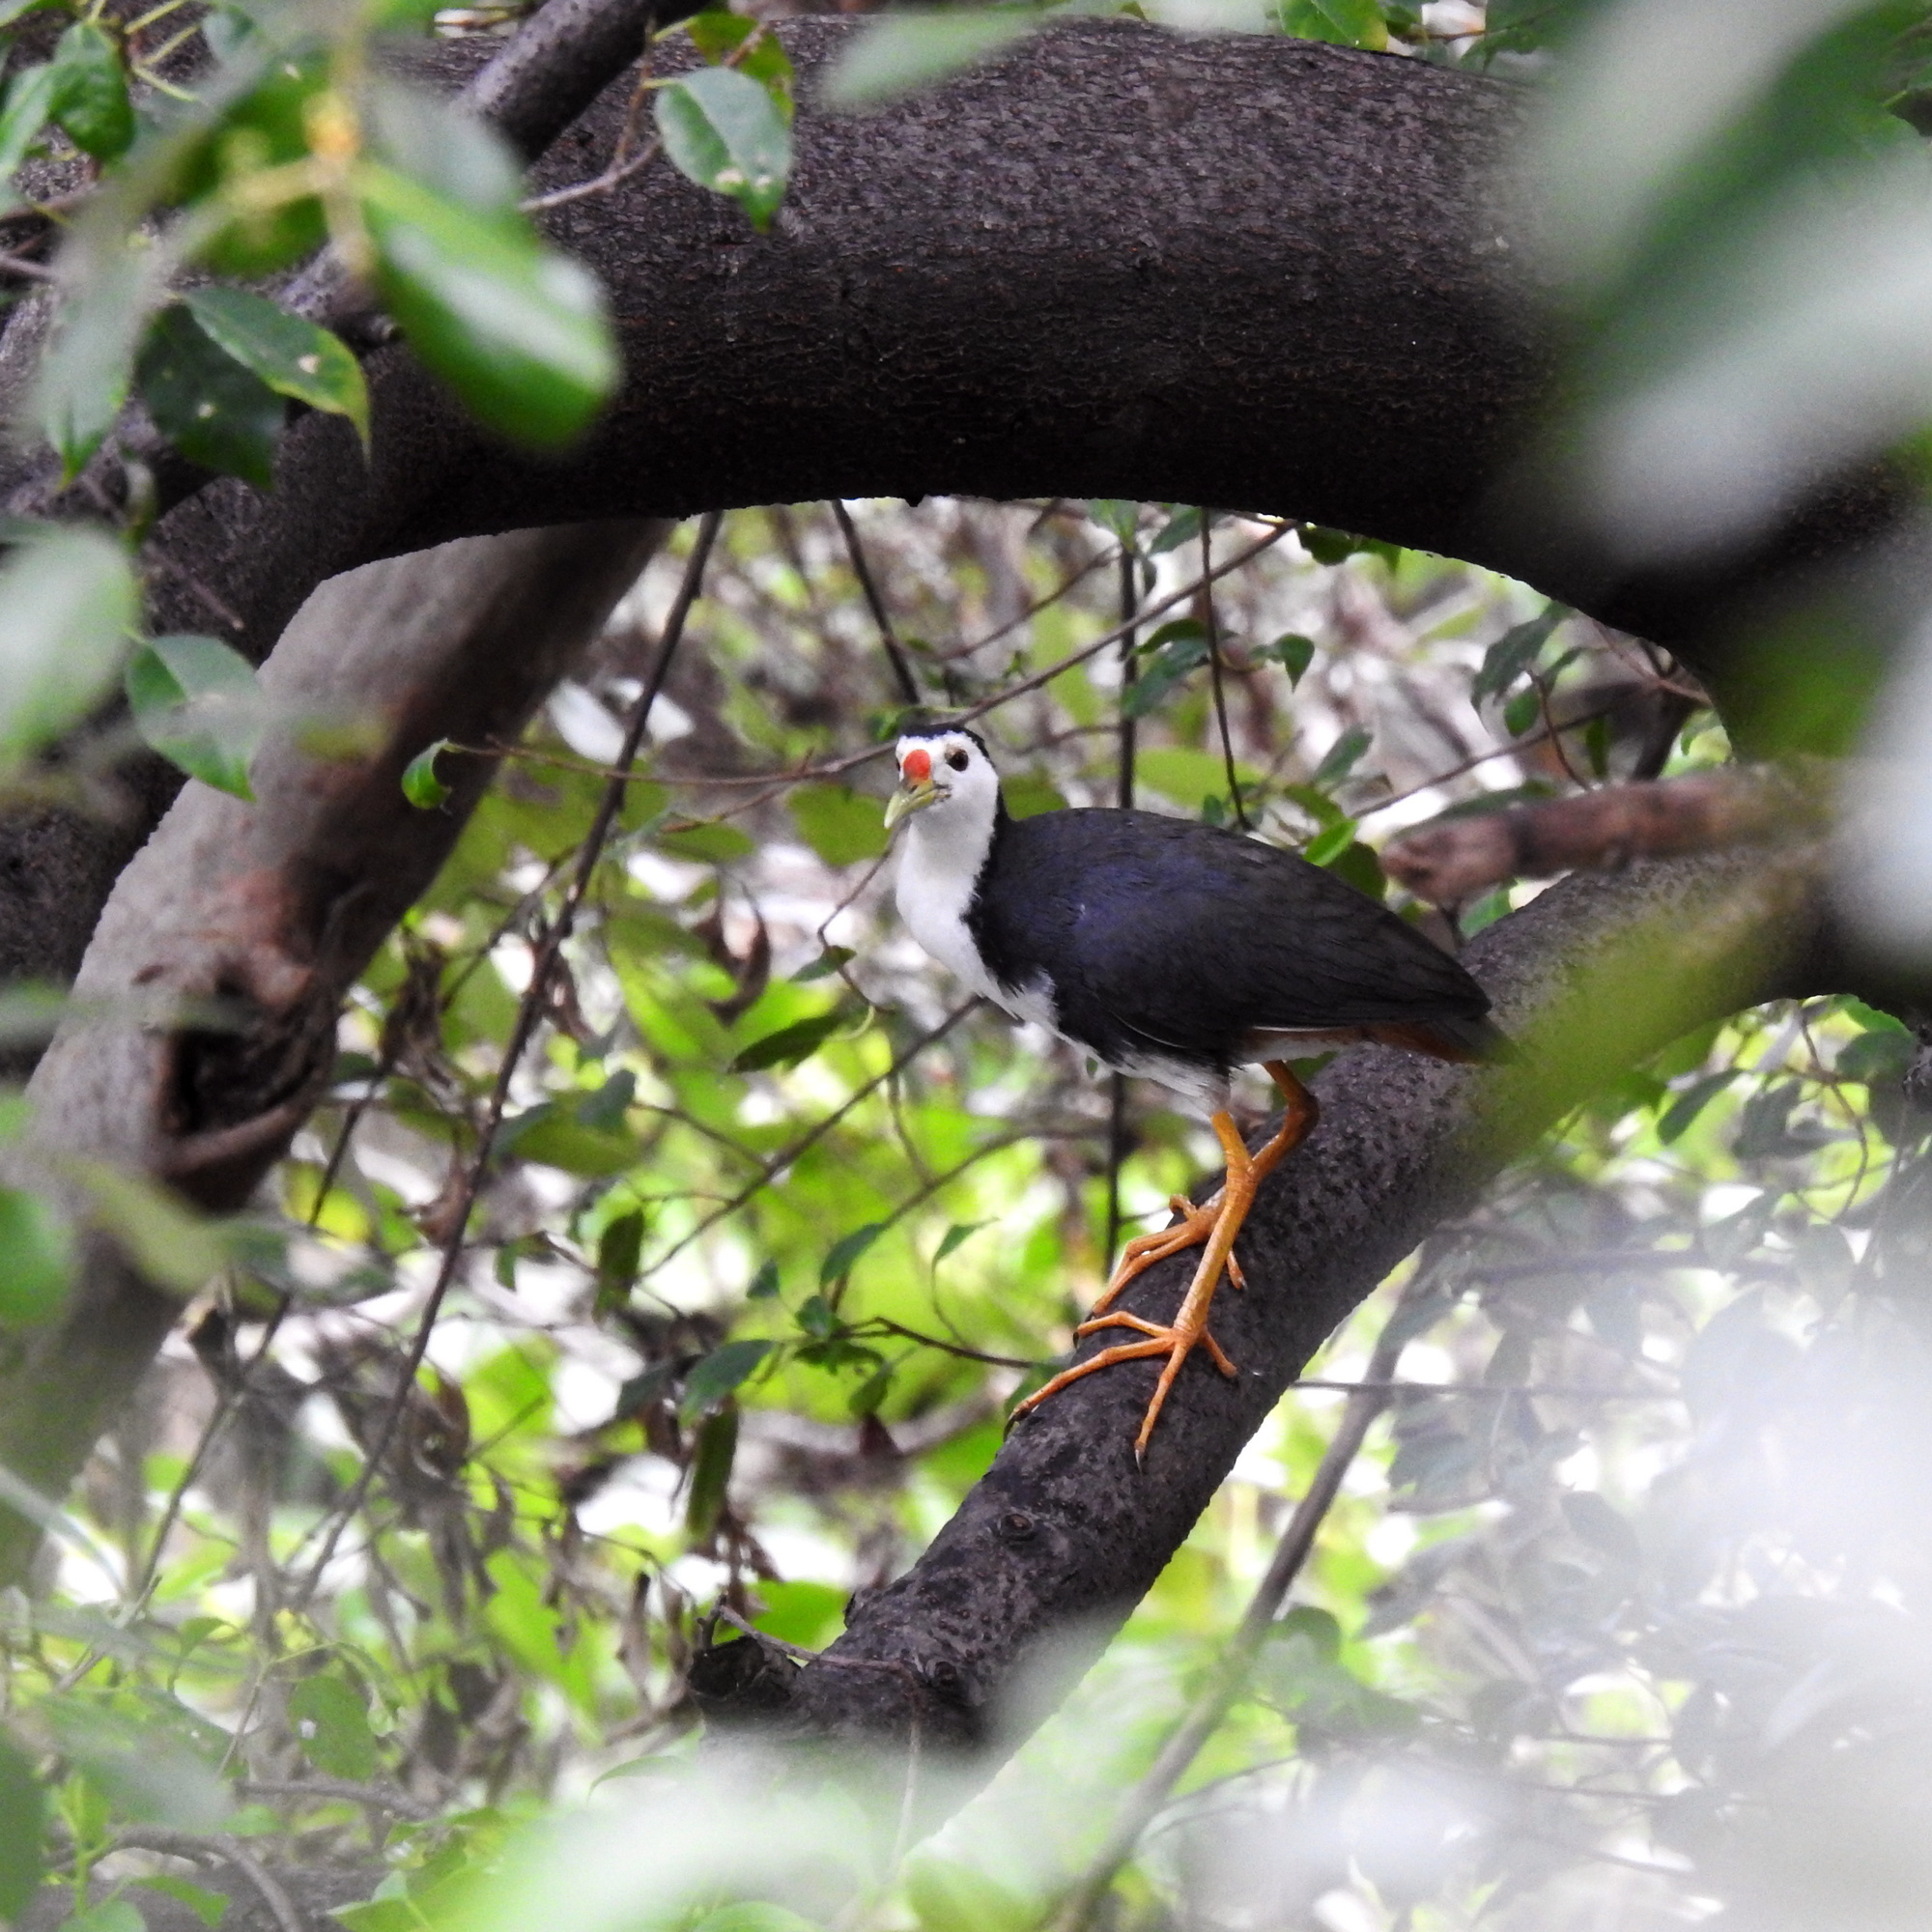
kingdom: Animalia
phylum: Chordata
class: Aves
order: Gruiformes
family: Rallidae
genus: Amaurornis
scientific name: Amaurornis phoenicurus
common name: White-breasted waterhen
